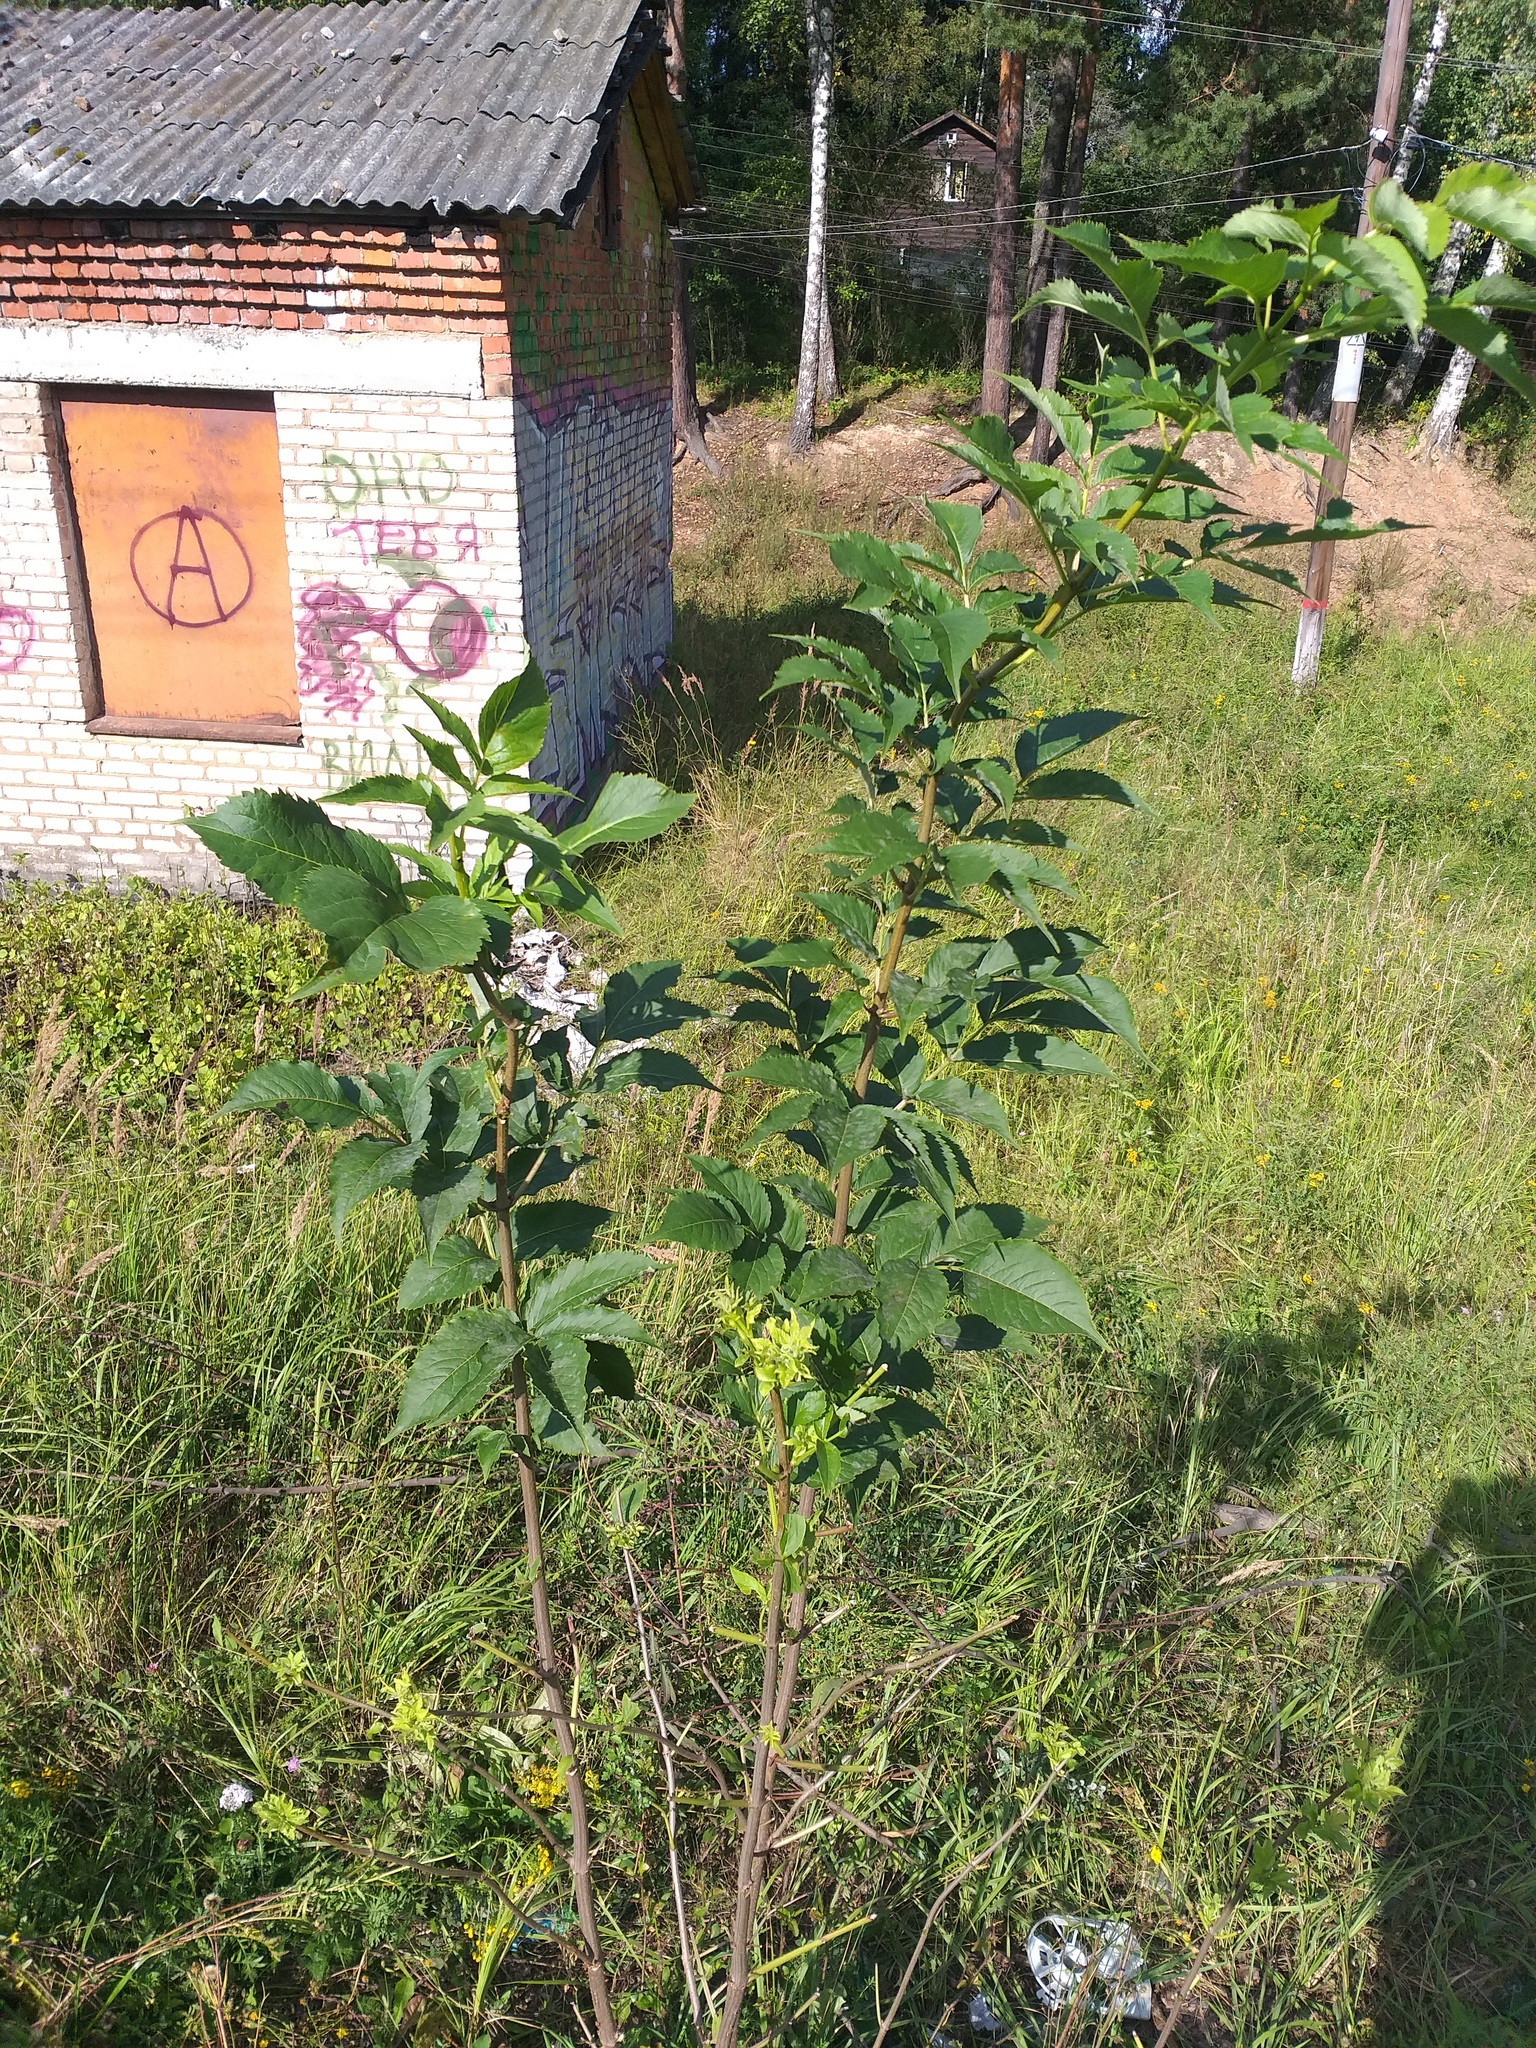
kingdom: Plantae
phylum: Tracheophyta
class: Magnoliopsida
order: Dipsacales
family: Viburnaceae
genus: Sambucus
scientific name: Sambucus racemosa
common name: Red-berried elder
